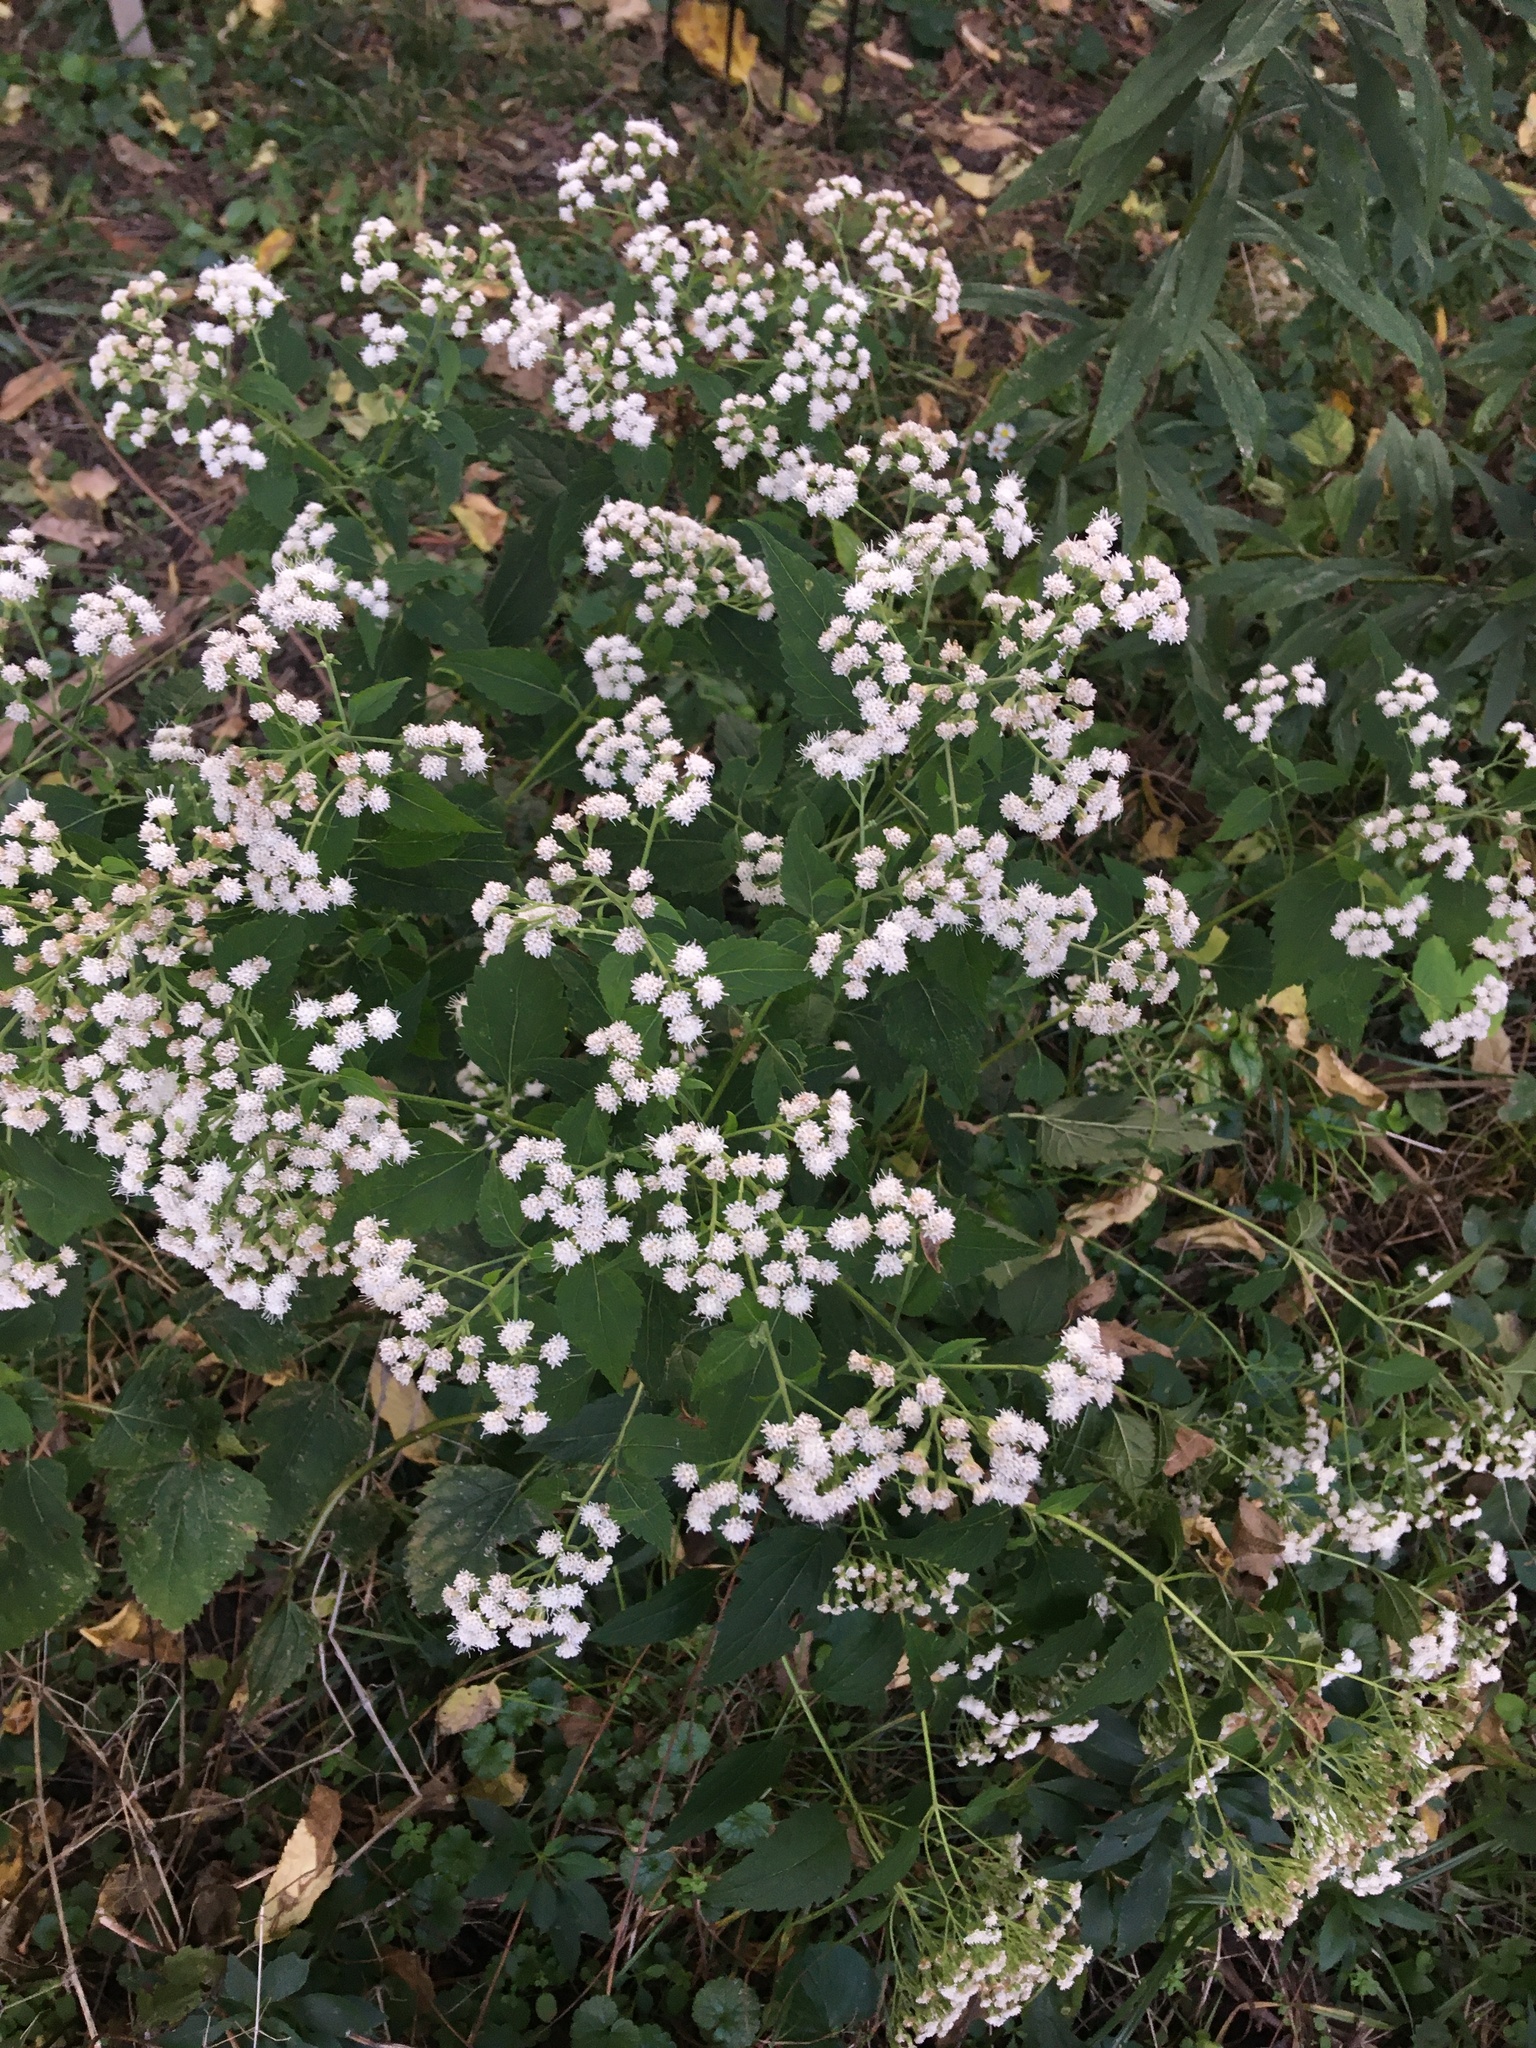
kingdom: Plantae
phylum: Tracheophyta
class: Magnoliopsida
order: Asterales
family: Asteraceae
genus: Ageratina
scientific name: Ageratina altissima
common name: White snakeroot
